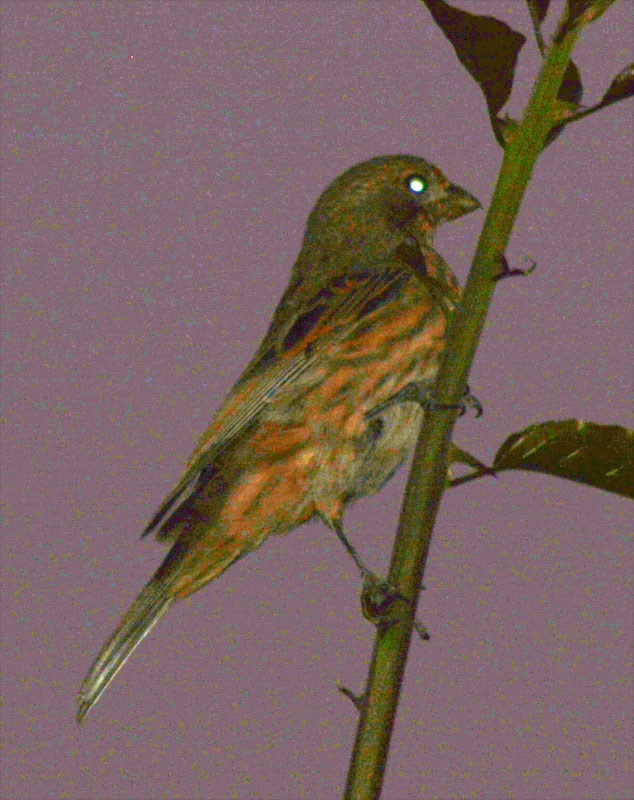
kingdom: Animalia
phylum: Chordata
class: Aves
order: Passeriformes
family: Fringillidae
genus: Haemorhous
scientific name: Haemorhous mexicanus
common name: House finch
